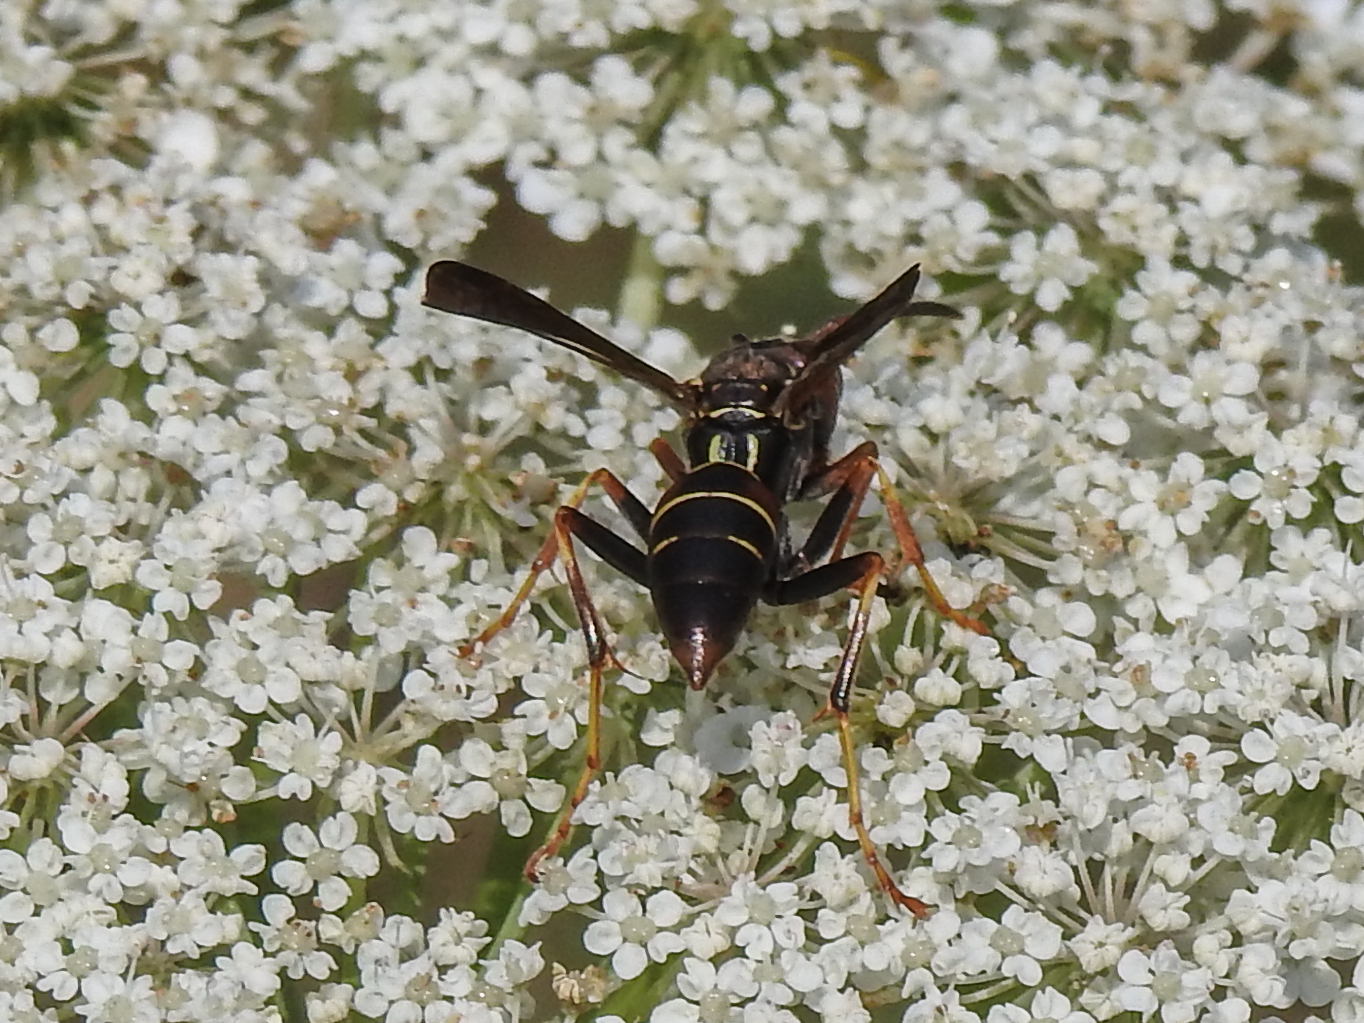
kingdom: Animalia
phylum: Arthropoda
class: Insecta
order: Hymenoptera
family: Eumenidae
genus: Polistes
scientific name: Polistes fuscatus
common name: Dark paper wasp
